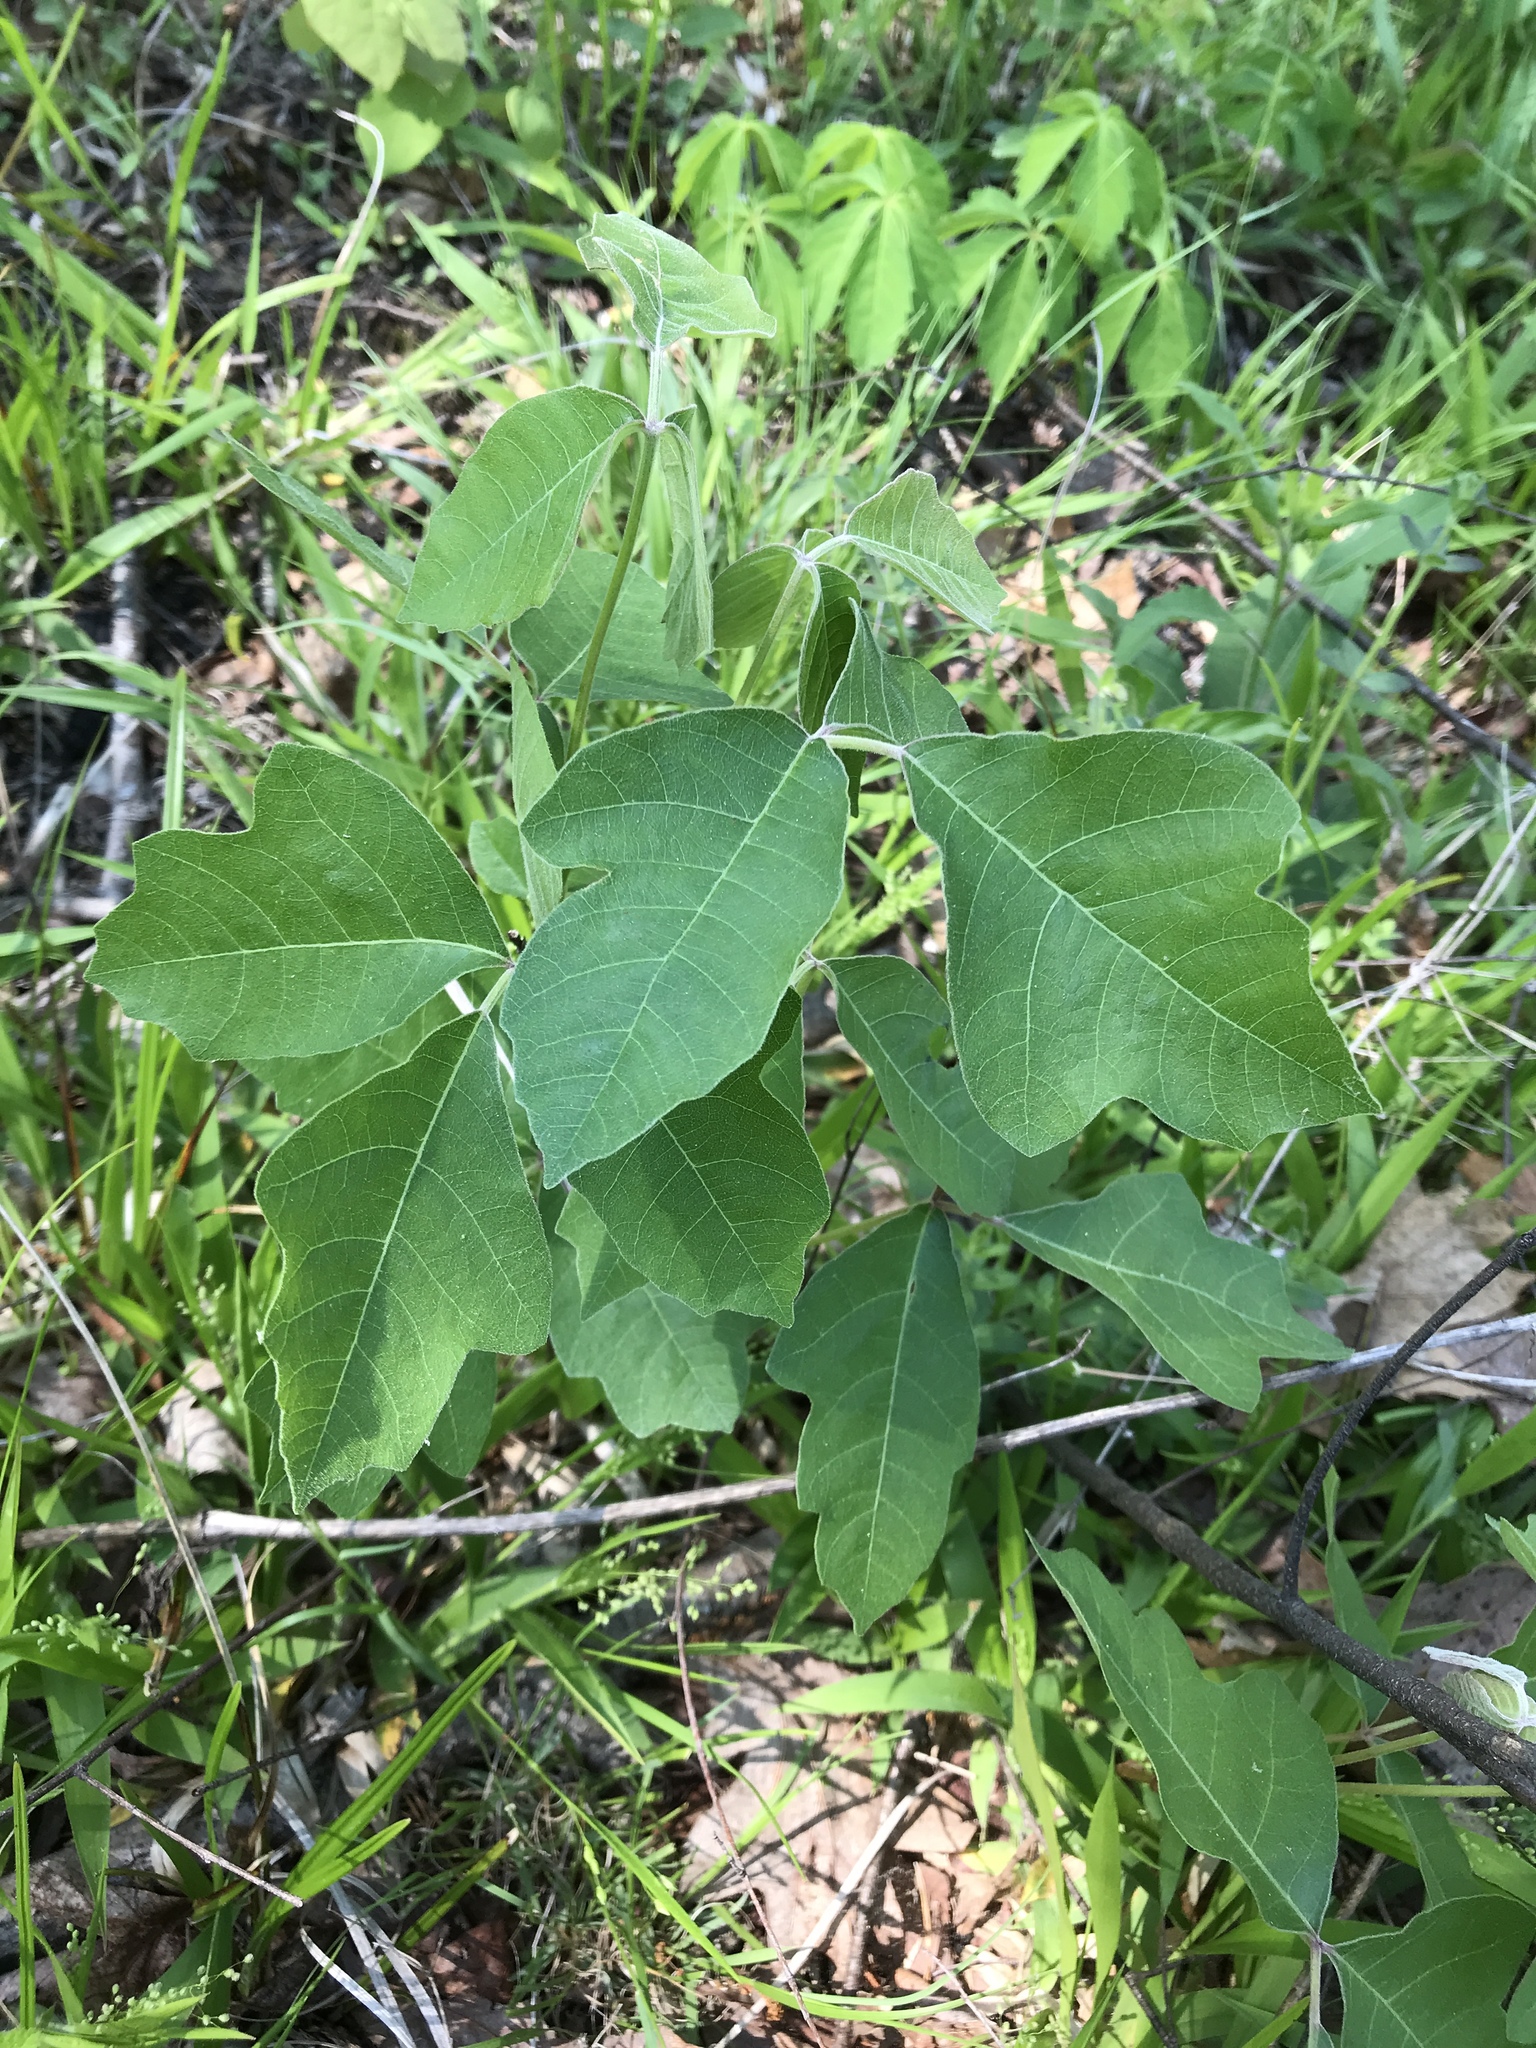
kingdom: Plantae
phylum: Tracheophyta
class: Magnoliopsida
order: Sapindales
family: Anacardiaceae
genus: Toxicodendron
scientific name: Toxicodendron pubescens
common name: Eastern poison-oak
